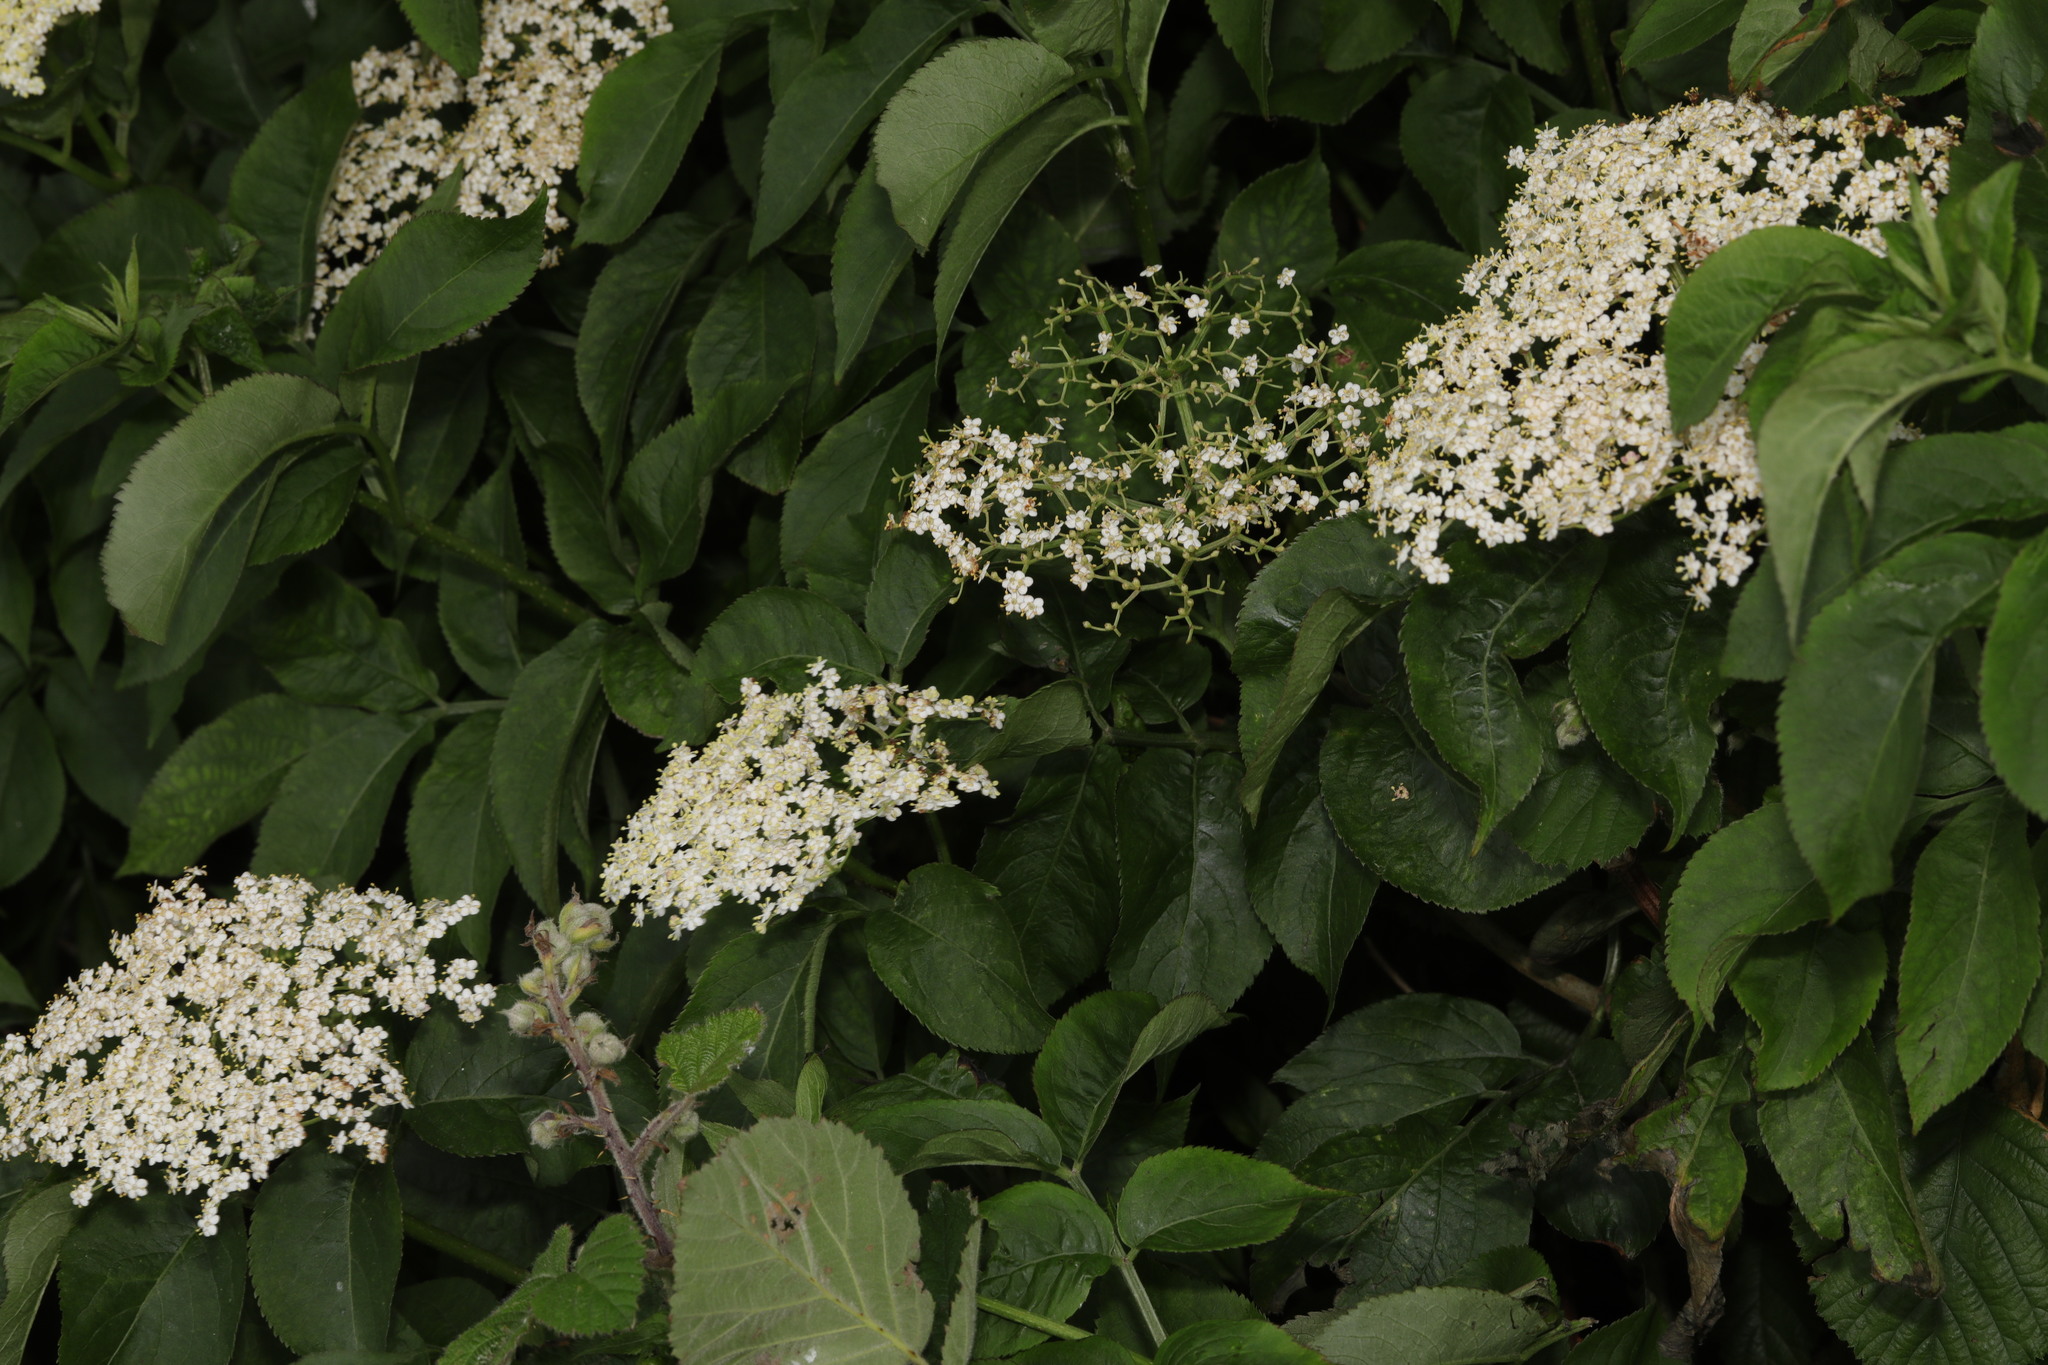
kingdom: Plantae
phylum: Tracheophyta
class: Magnoliopsida
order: Dipsacales
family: Viburnaceae
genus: Sambucus
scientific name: Sambucus nigra
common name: Elder
